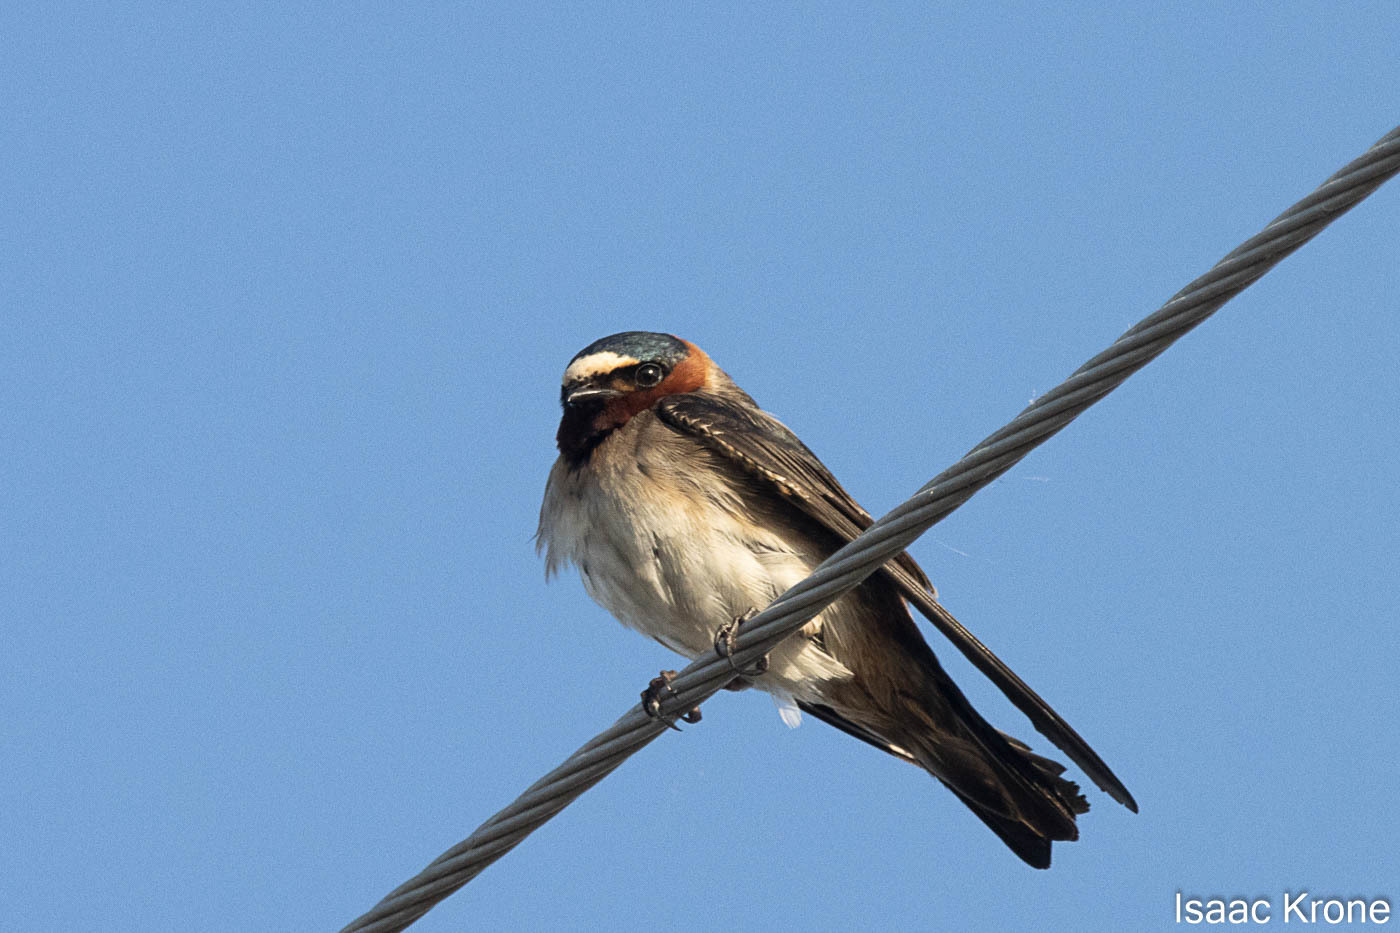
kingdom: Animalia
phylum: Chordata
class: Aves
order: Passeriformes
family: Hirundinidae
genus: Petrochelidon
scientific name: Petrochelidon pyrrhonota
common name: American cliff swallow
